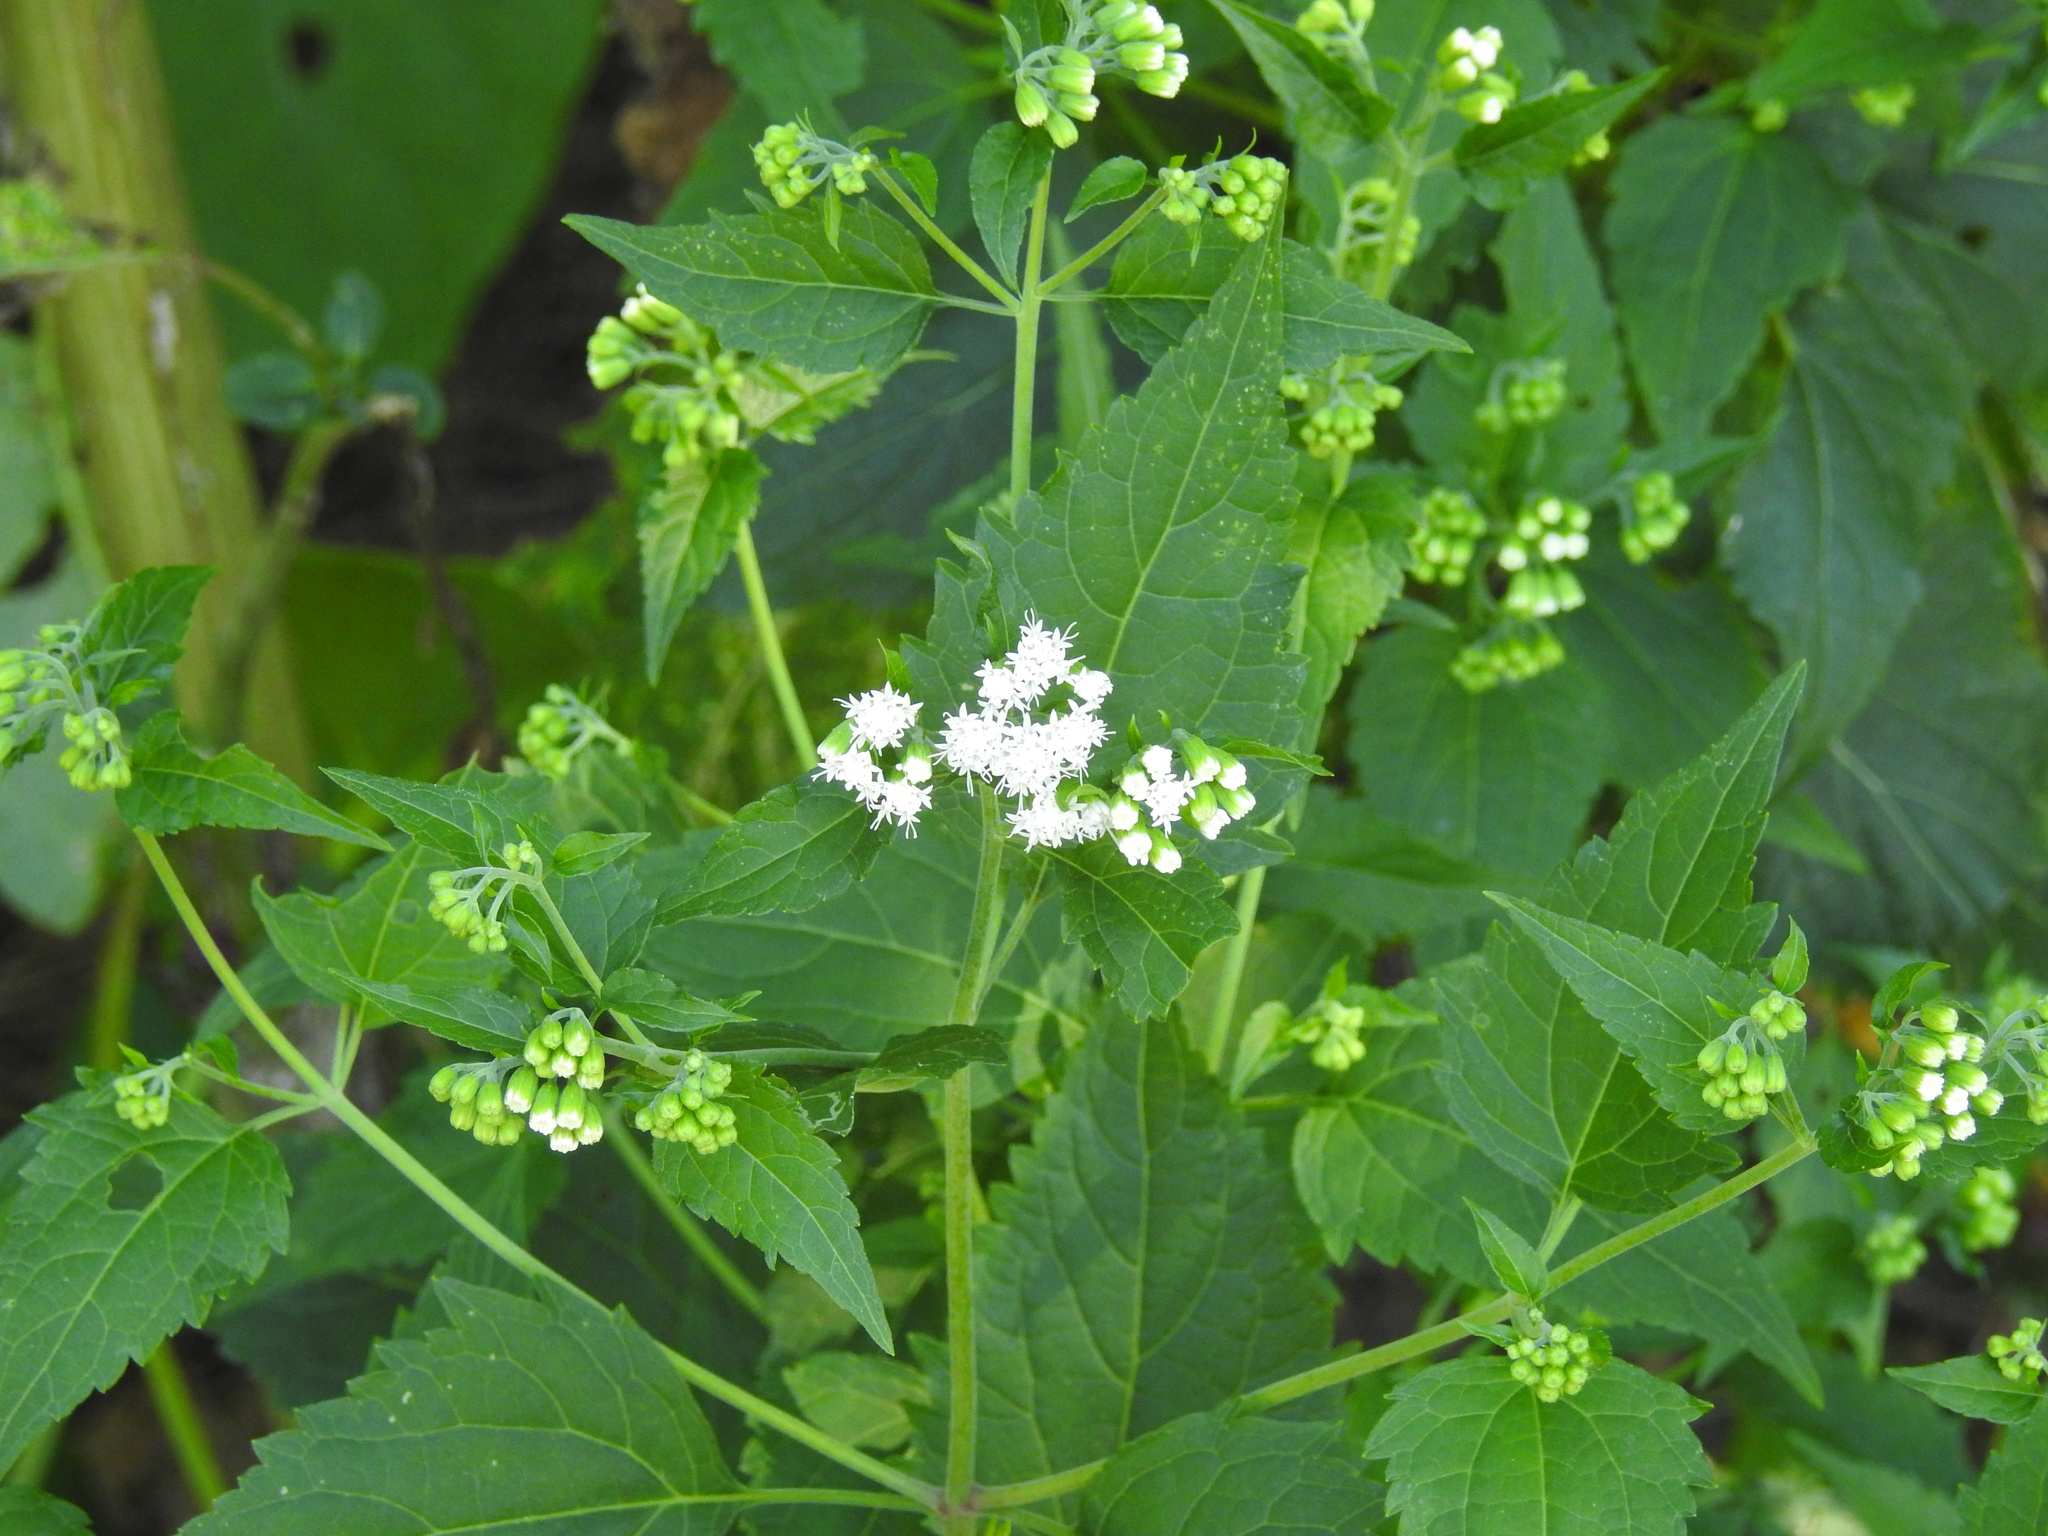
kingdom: Plantae
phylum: Tracheophyta
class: Magnoliopsida
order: Asterales
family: Asteraceae
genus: Ageratina
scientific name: Ageratina altissima
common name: White snakeroot
